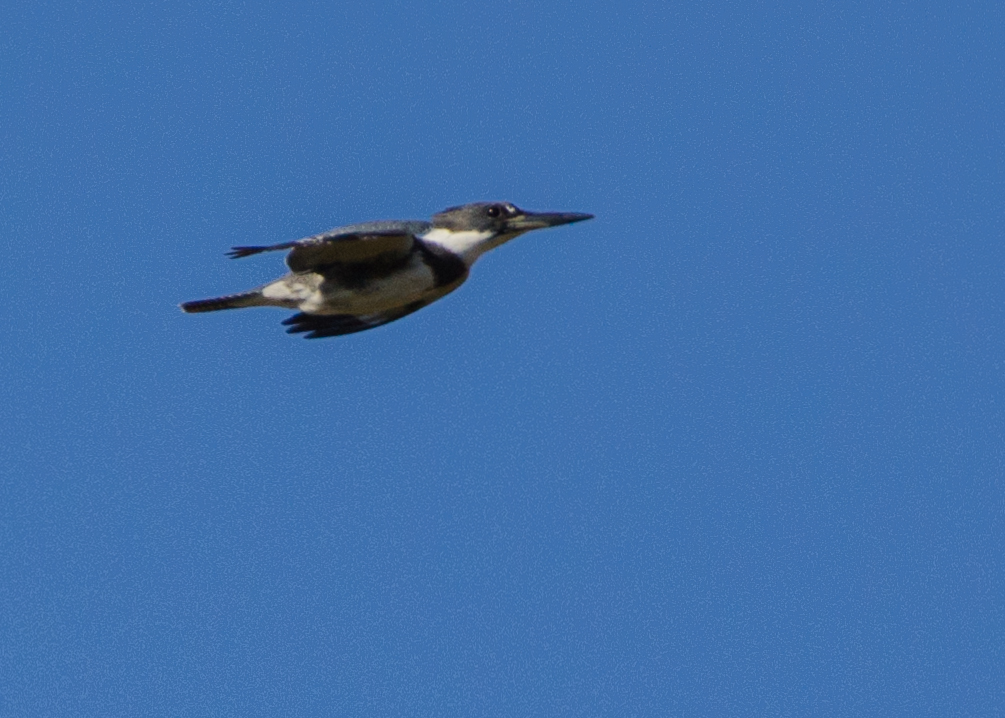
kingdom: Animalia
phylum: Chordata
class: Aves
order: Coraciiformes
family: Alcedinidae
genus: Megaceryle
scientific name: Megaceryle alcyon
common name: Belted kingfisher
